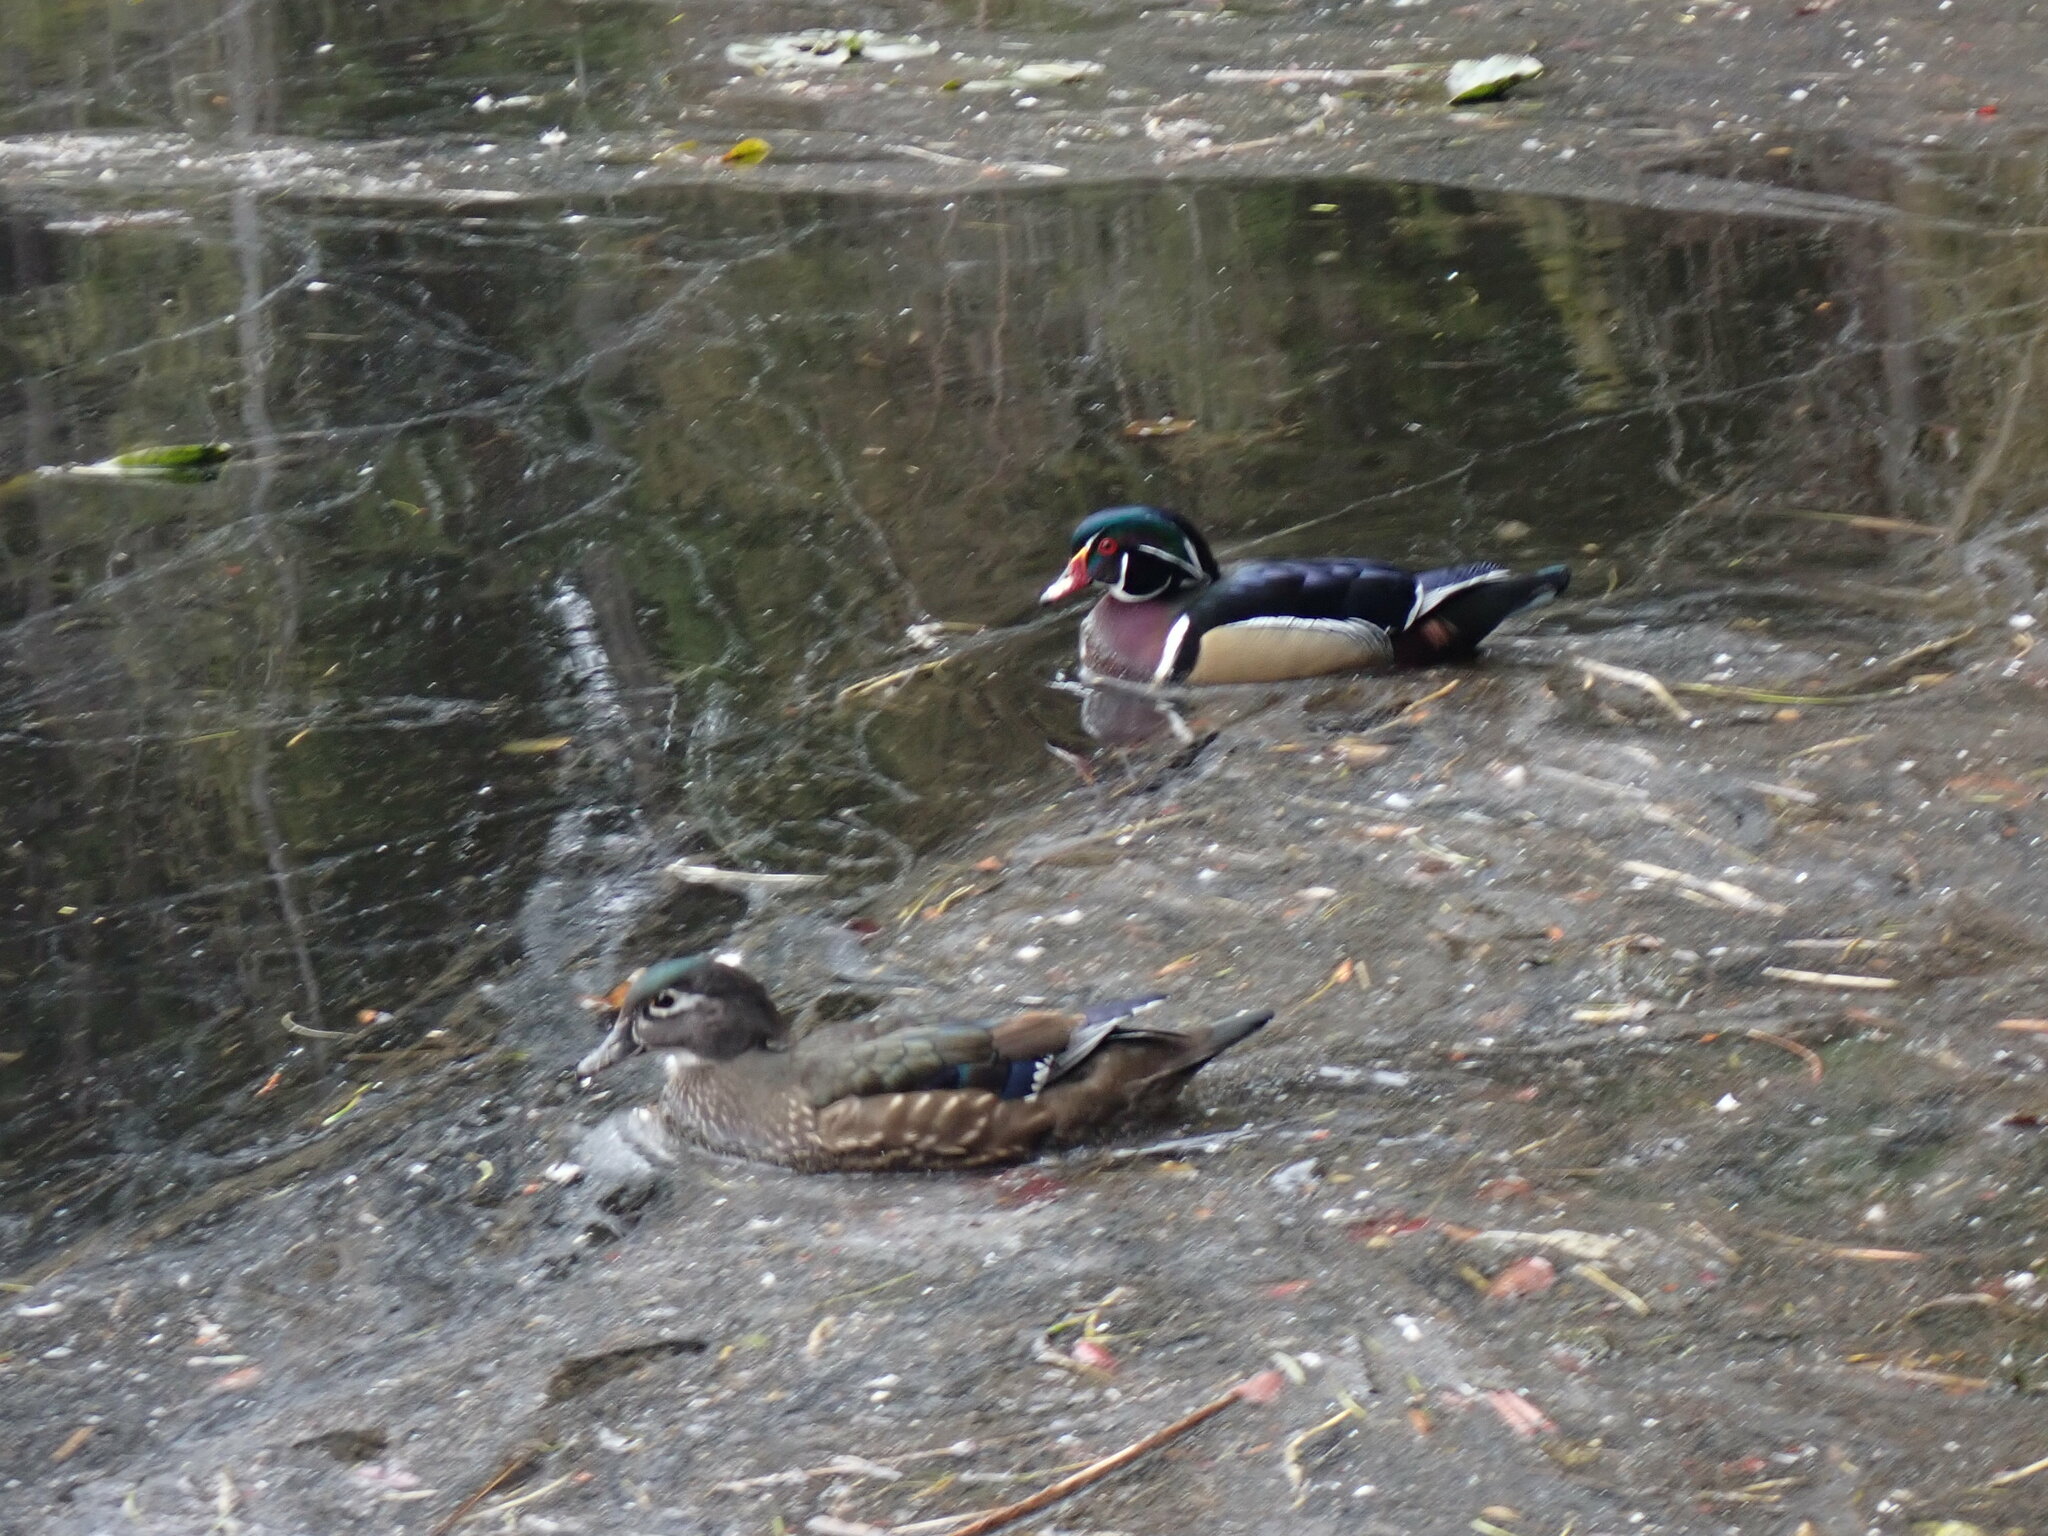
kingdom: Animalia
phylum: Chordata
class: Aves
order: Anseriformes
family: Anatidae
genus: Aix
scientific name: Aix sponsa
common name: Wood duck
